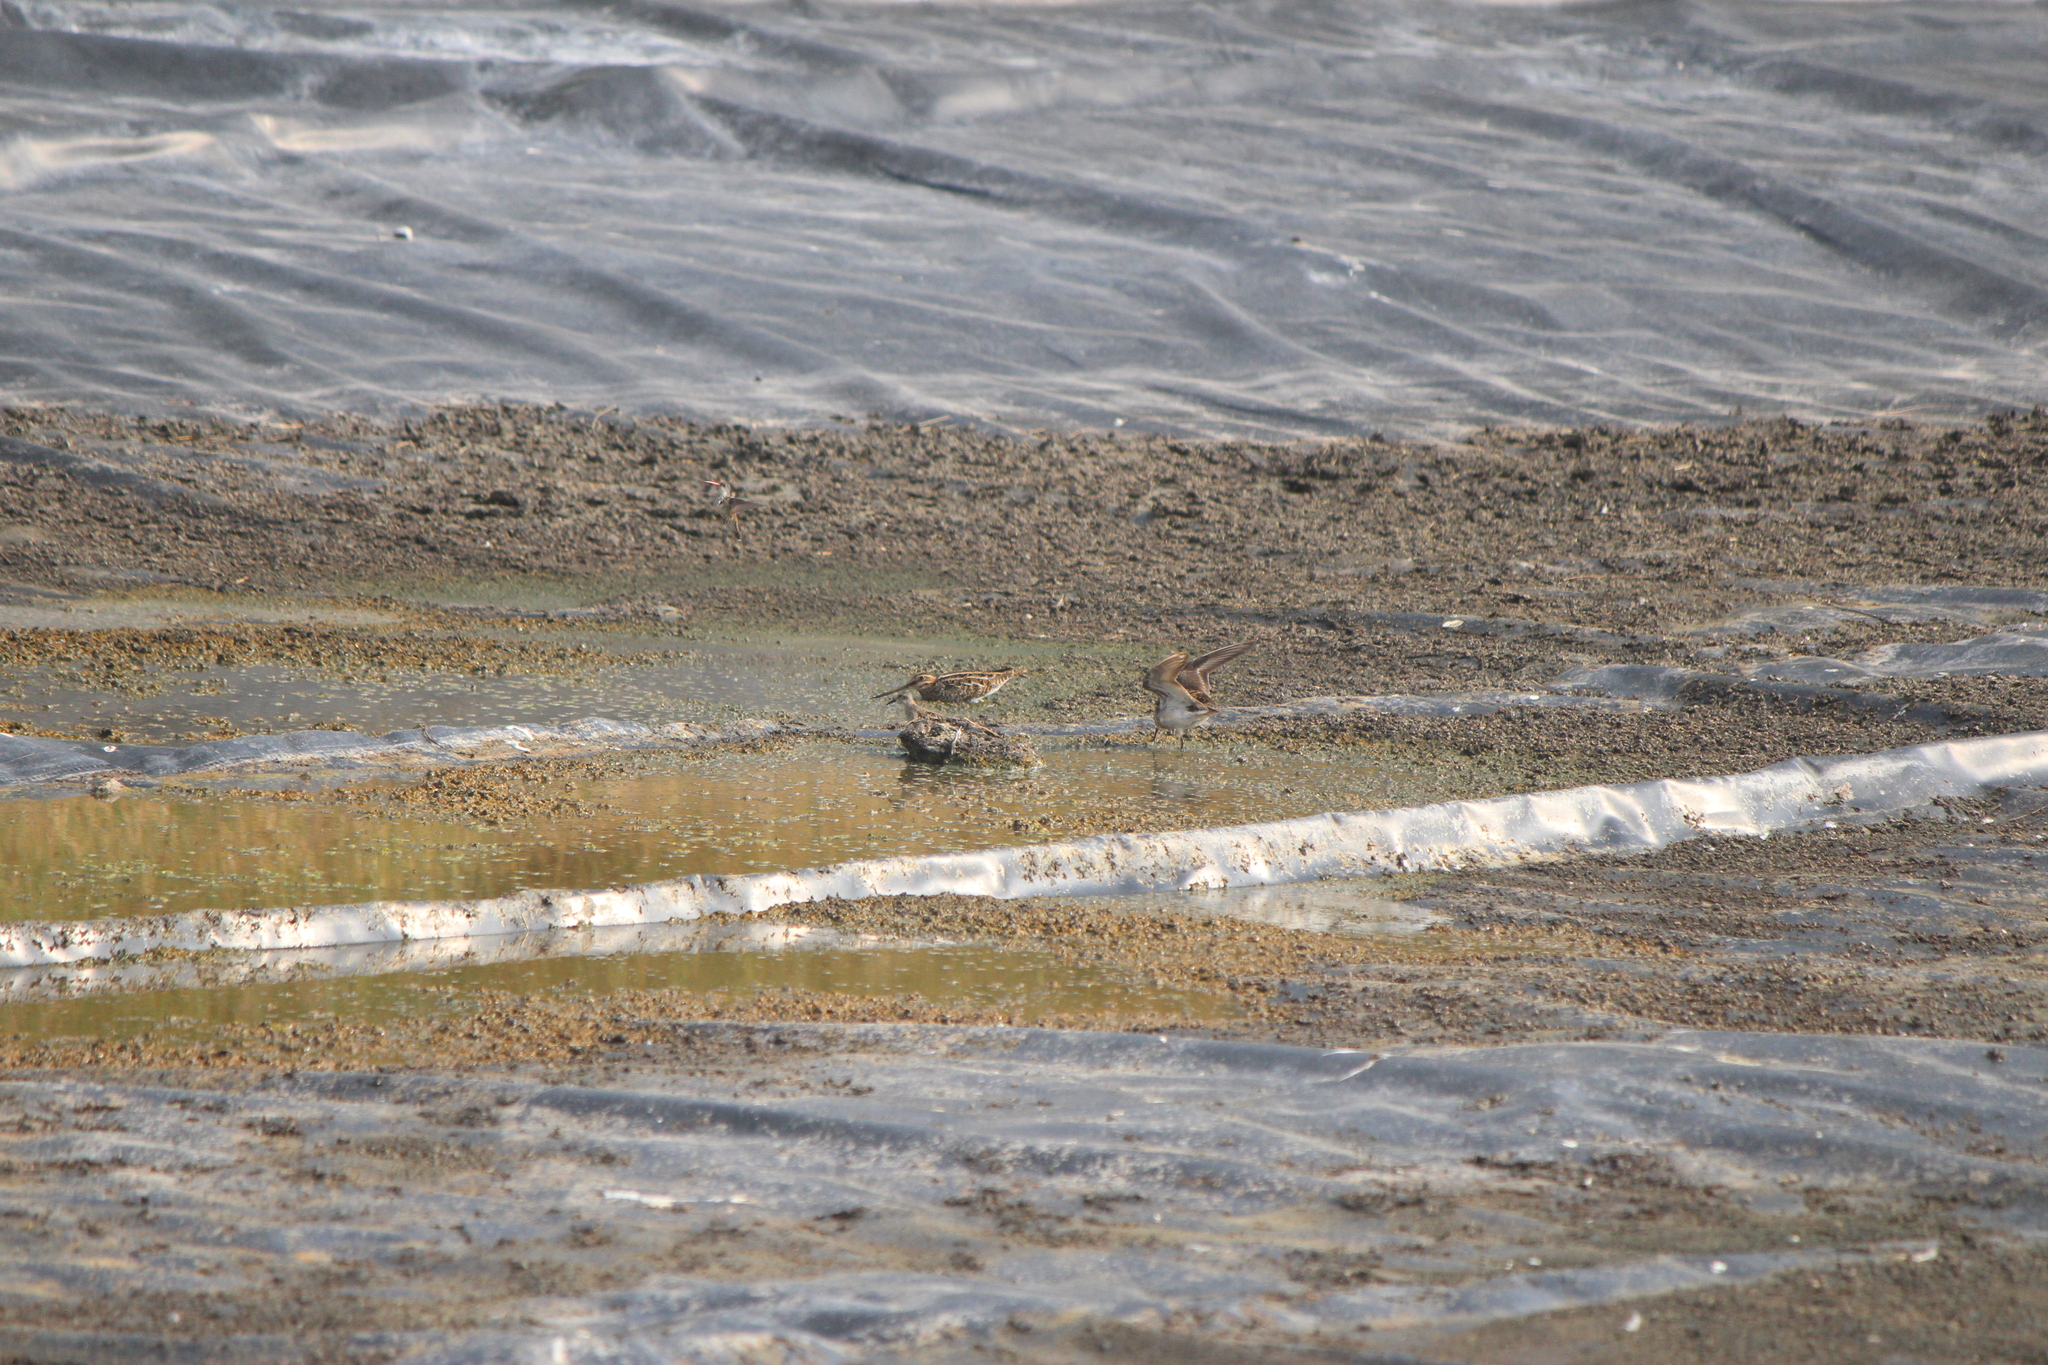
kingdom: Animalia
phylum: Chordata
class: Aves
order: Charadriiformes
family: Scolopacidae
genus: Gallinago
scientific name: Gallinago delicata
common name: Wilson's snipe
